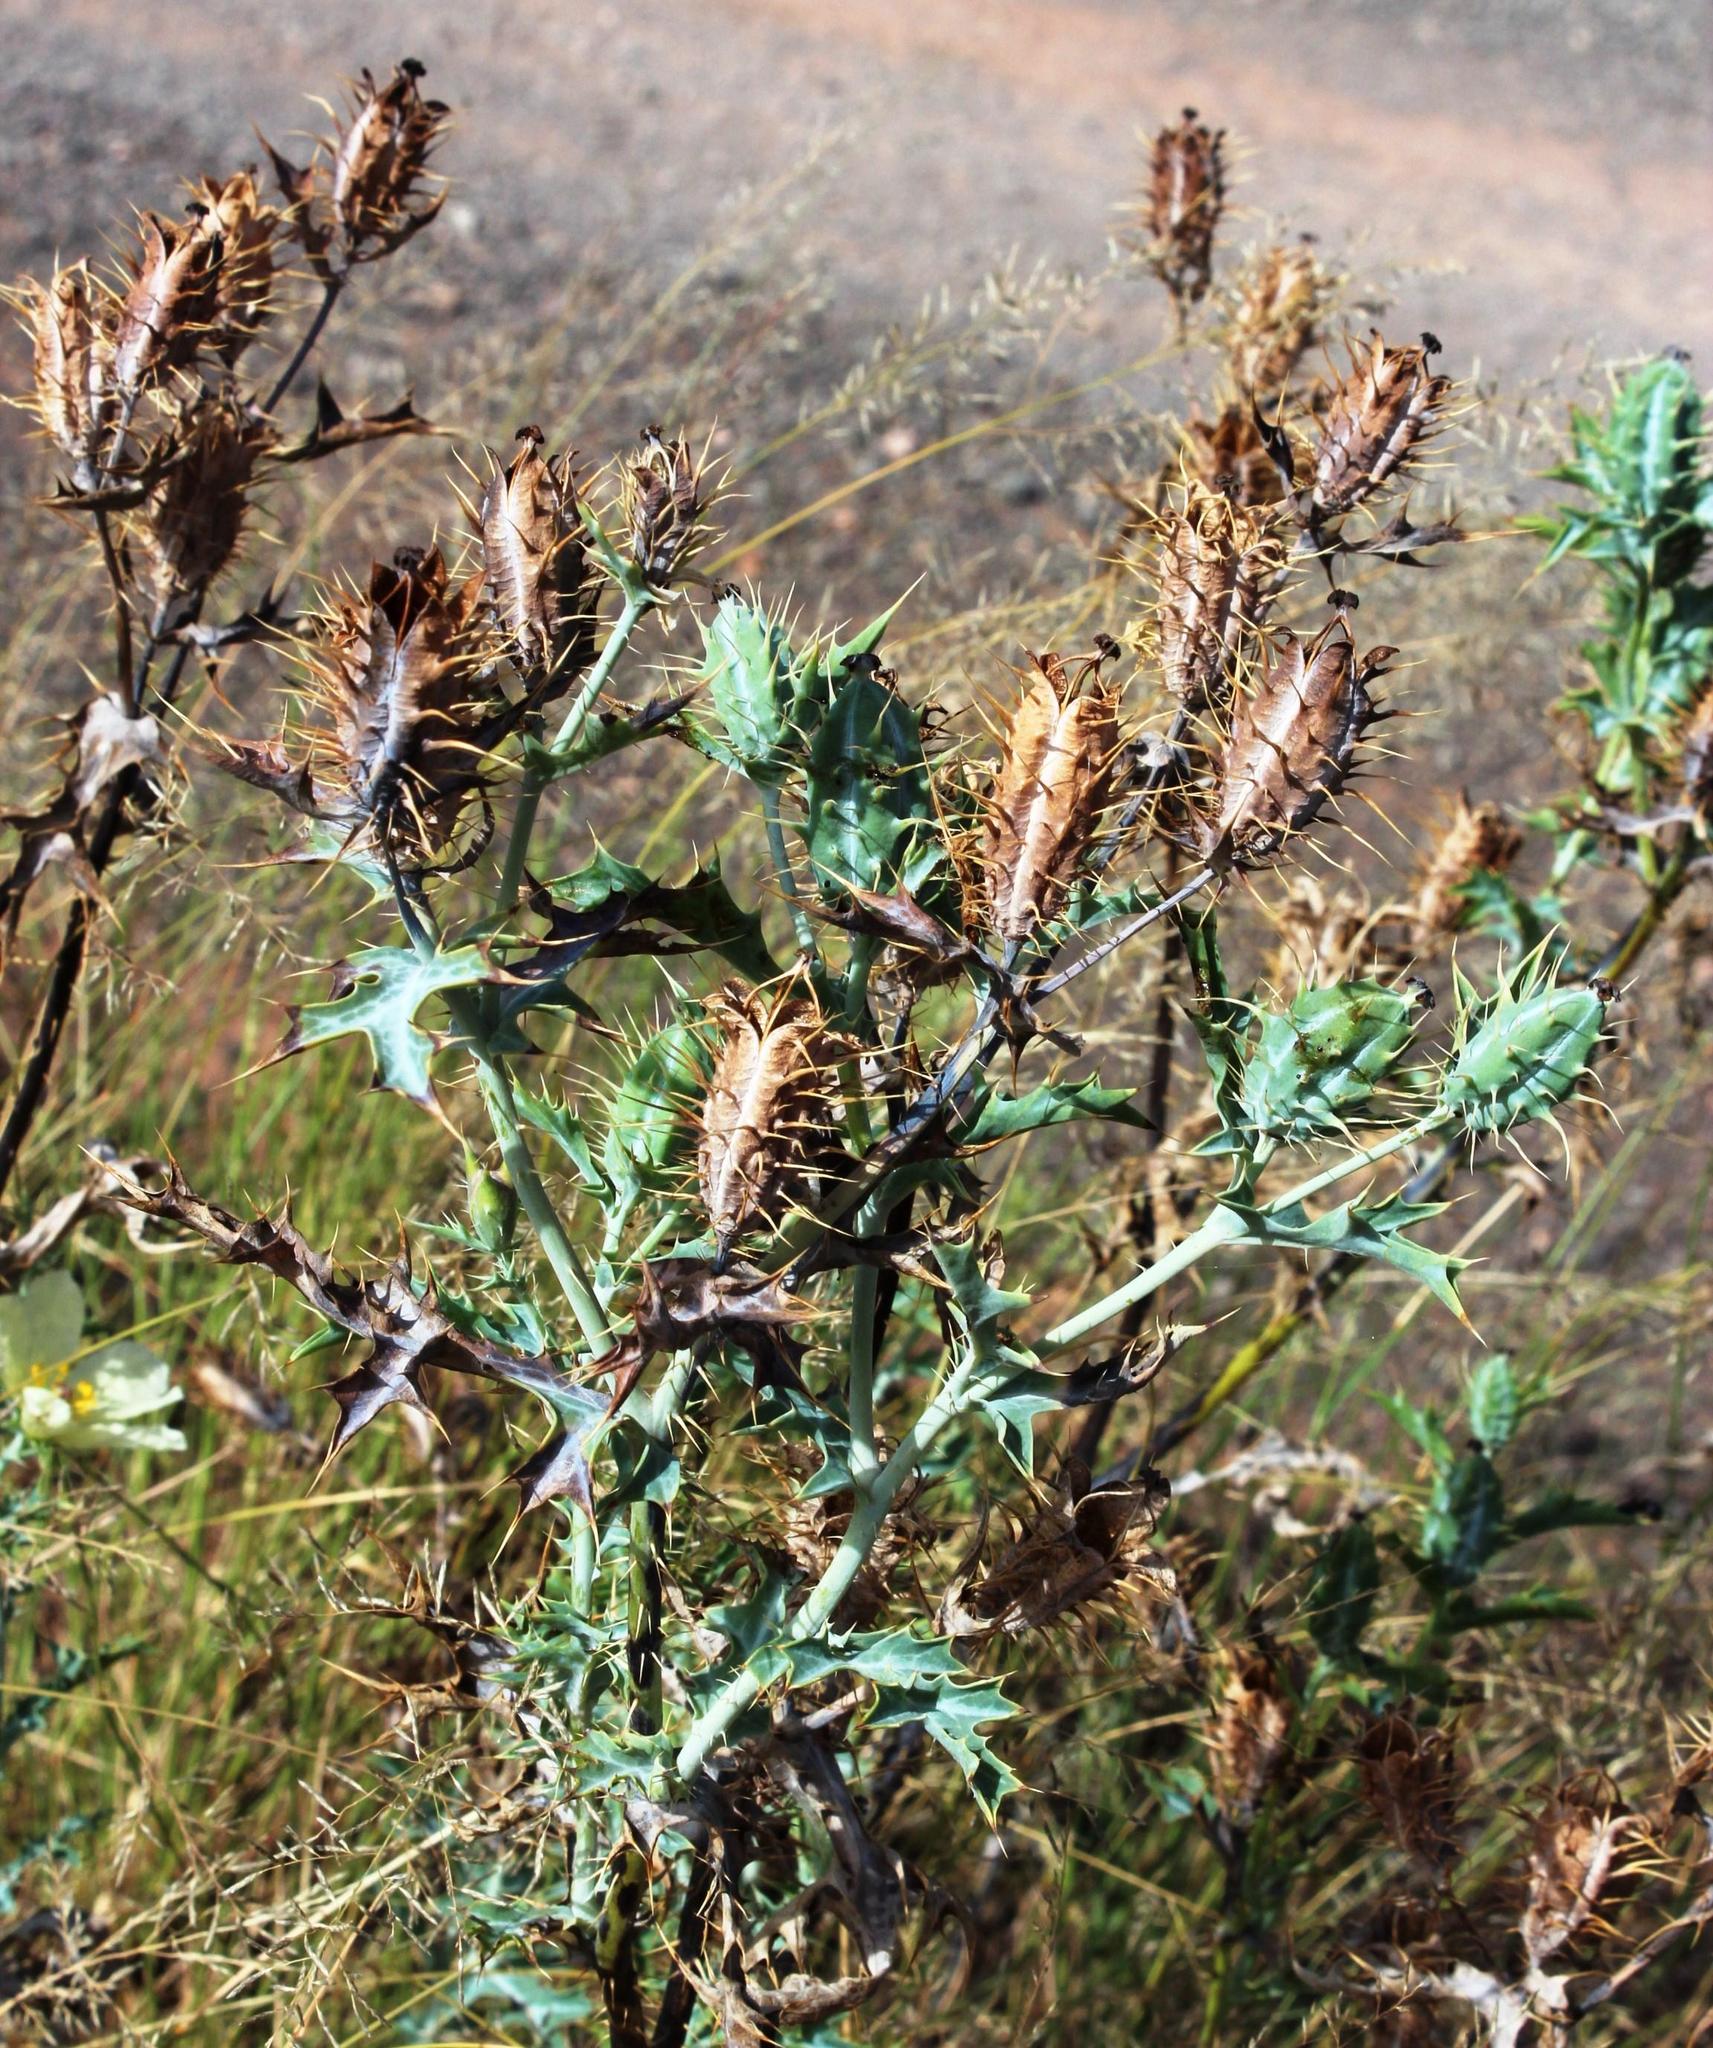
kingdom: Plantae
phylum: Tracheophyta
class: Magnoliopsida
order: Ranunculales
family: Papaveraceae
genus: Argemone
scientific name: Argemone ochroleuca
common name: White-flower mexican-poppy
